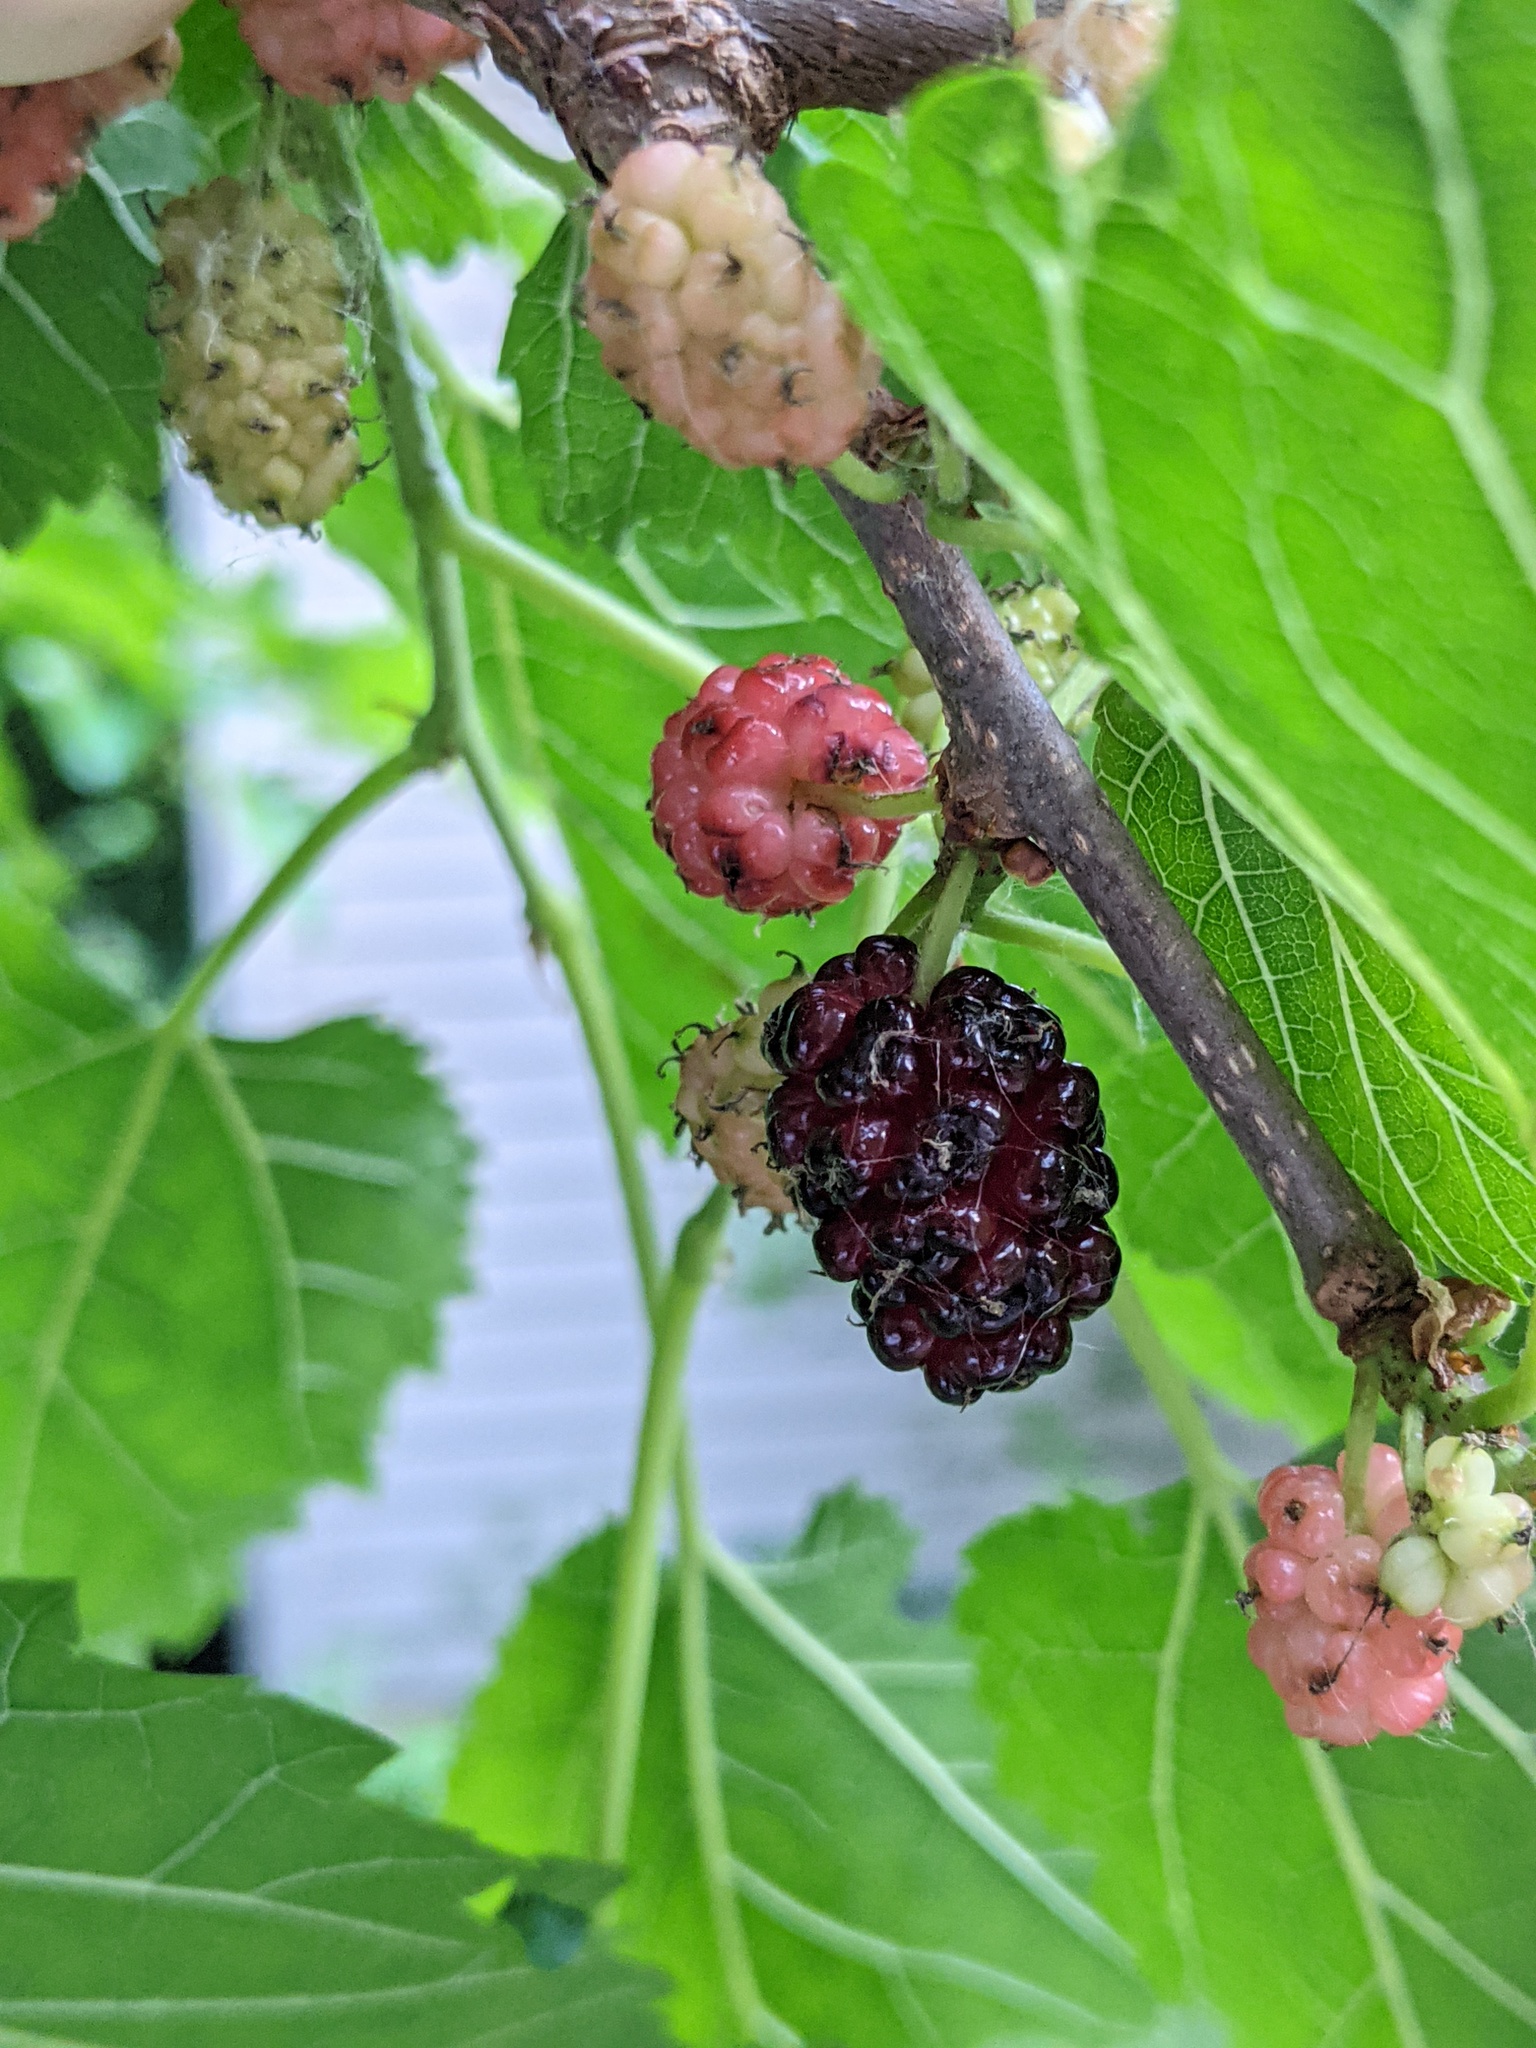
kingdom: Plantae
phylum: Tracheophyta
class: Magnoliopsida
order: Rosales
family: Moraceae
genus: Morus
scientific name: Morus alba
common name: White mulberry
